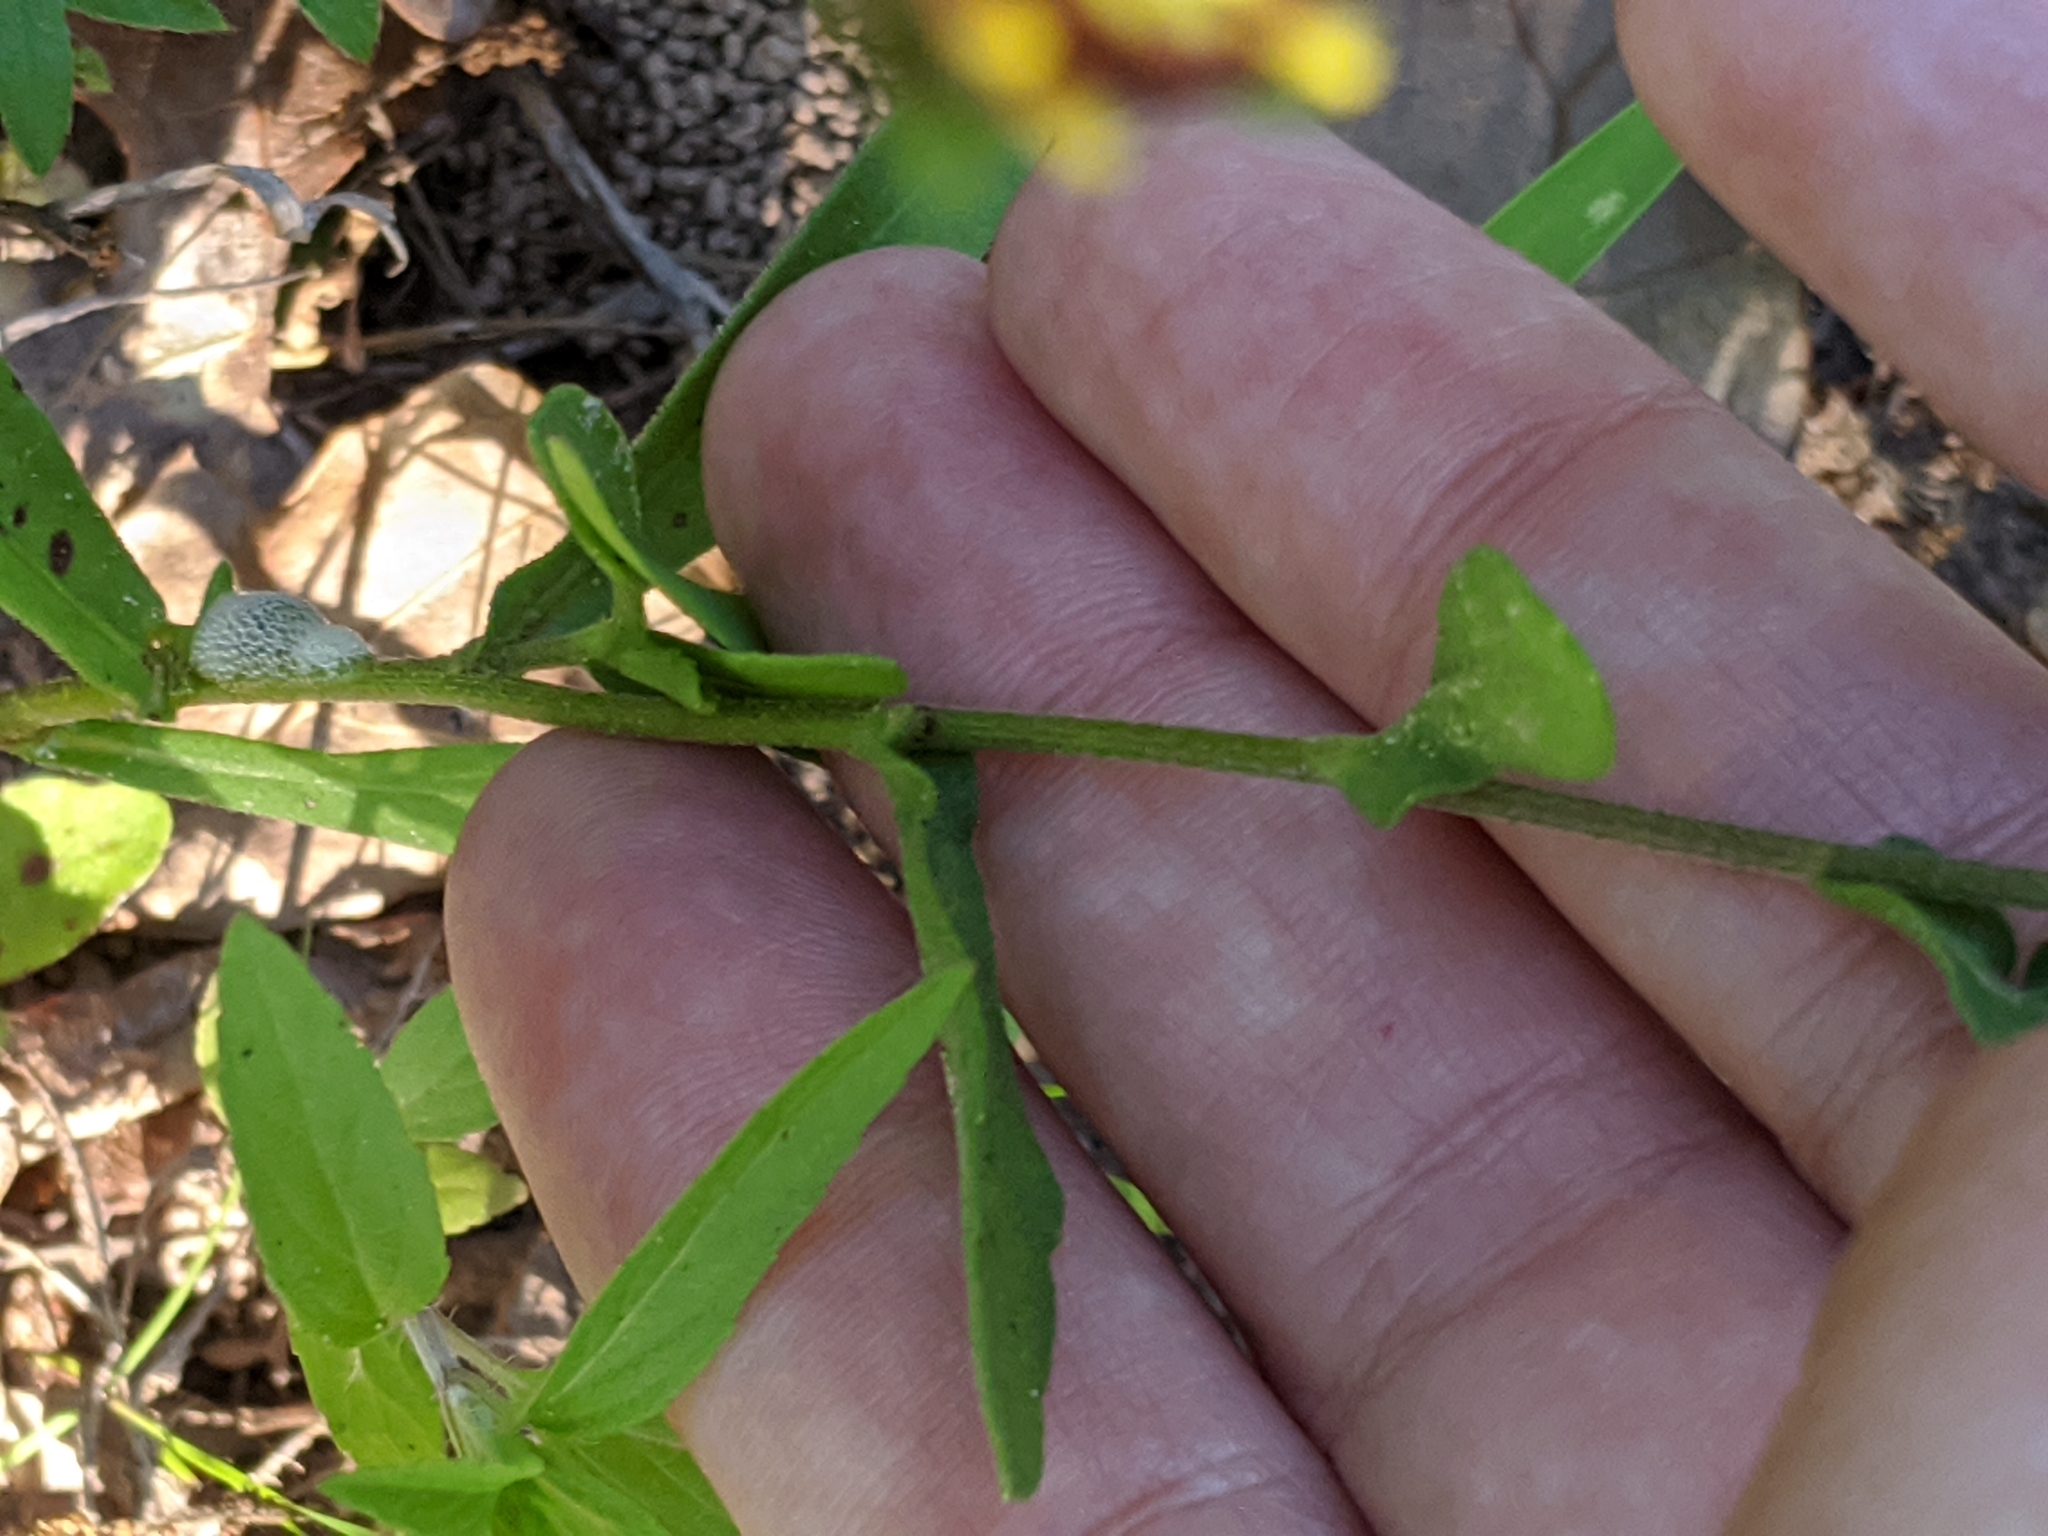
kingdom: Plantae
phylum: Tracheophyta
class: Magnoliopsida
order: Asterales
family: Asteraceae
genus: Gaillardia
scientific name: Gaillardia aestivalis
